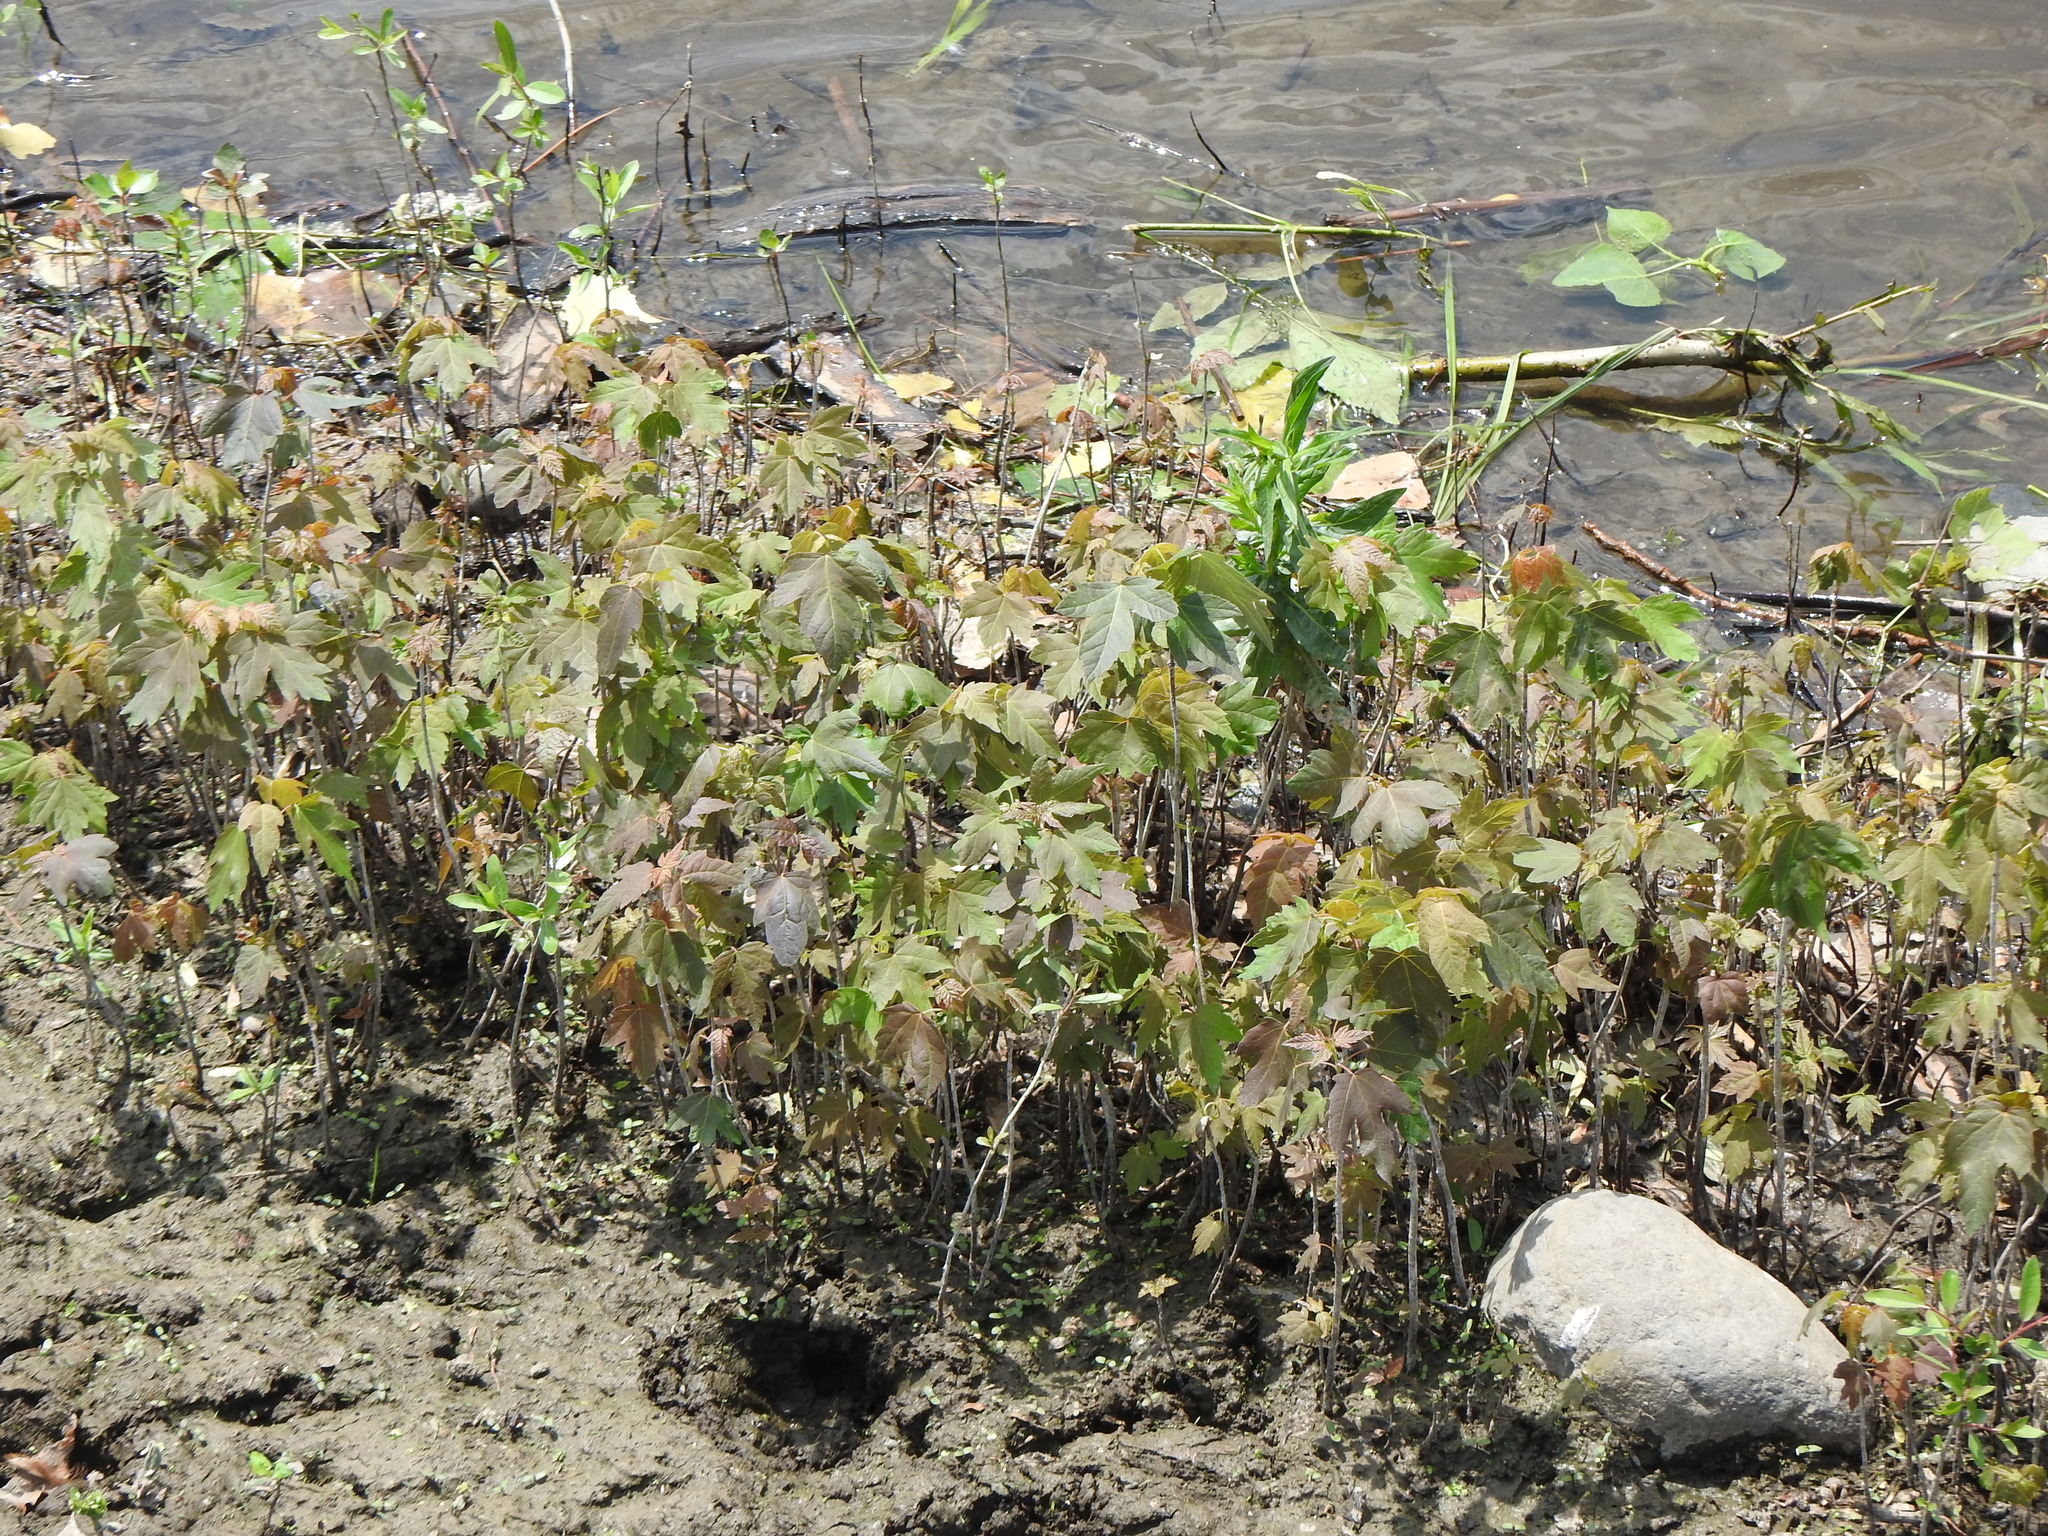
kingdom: Plantae
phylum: Tracheophyta
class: Magnoliopsida
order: Sapindales
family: Sapindaceae
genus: Acer
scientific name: Acer tataricum
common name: Tartar maple
